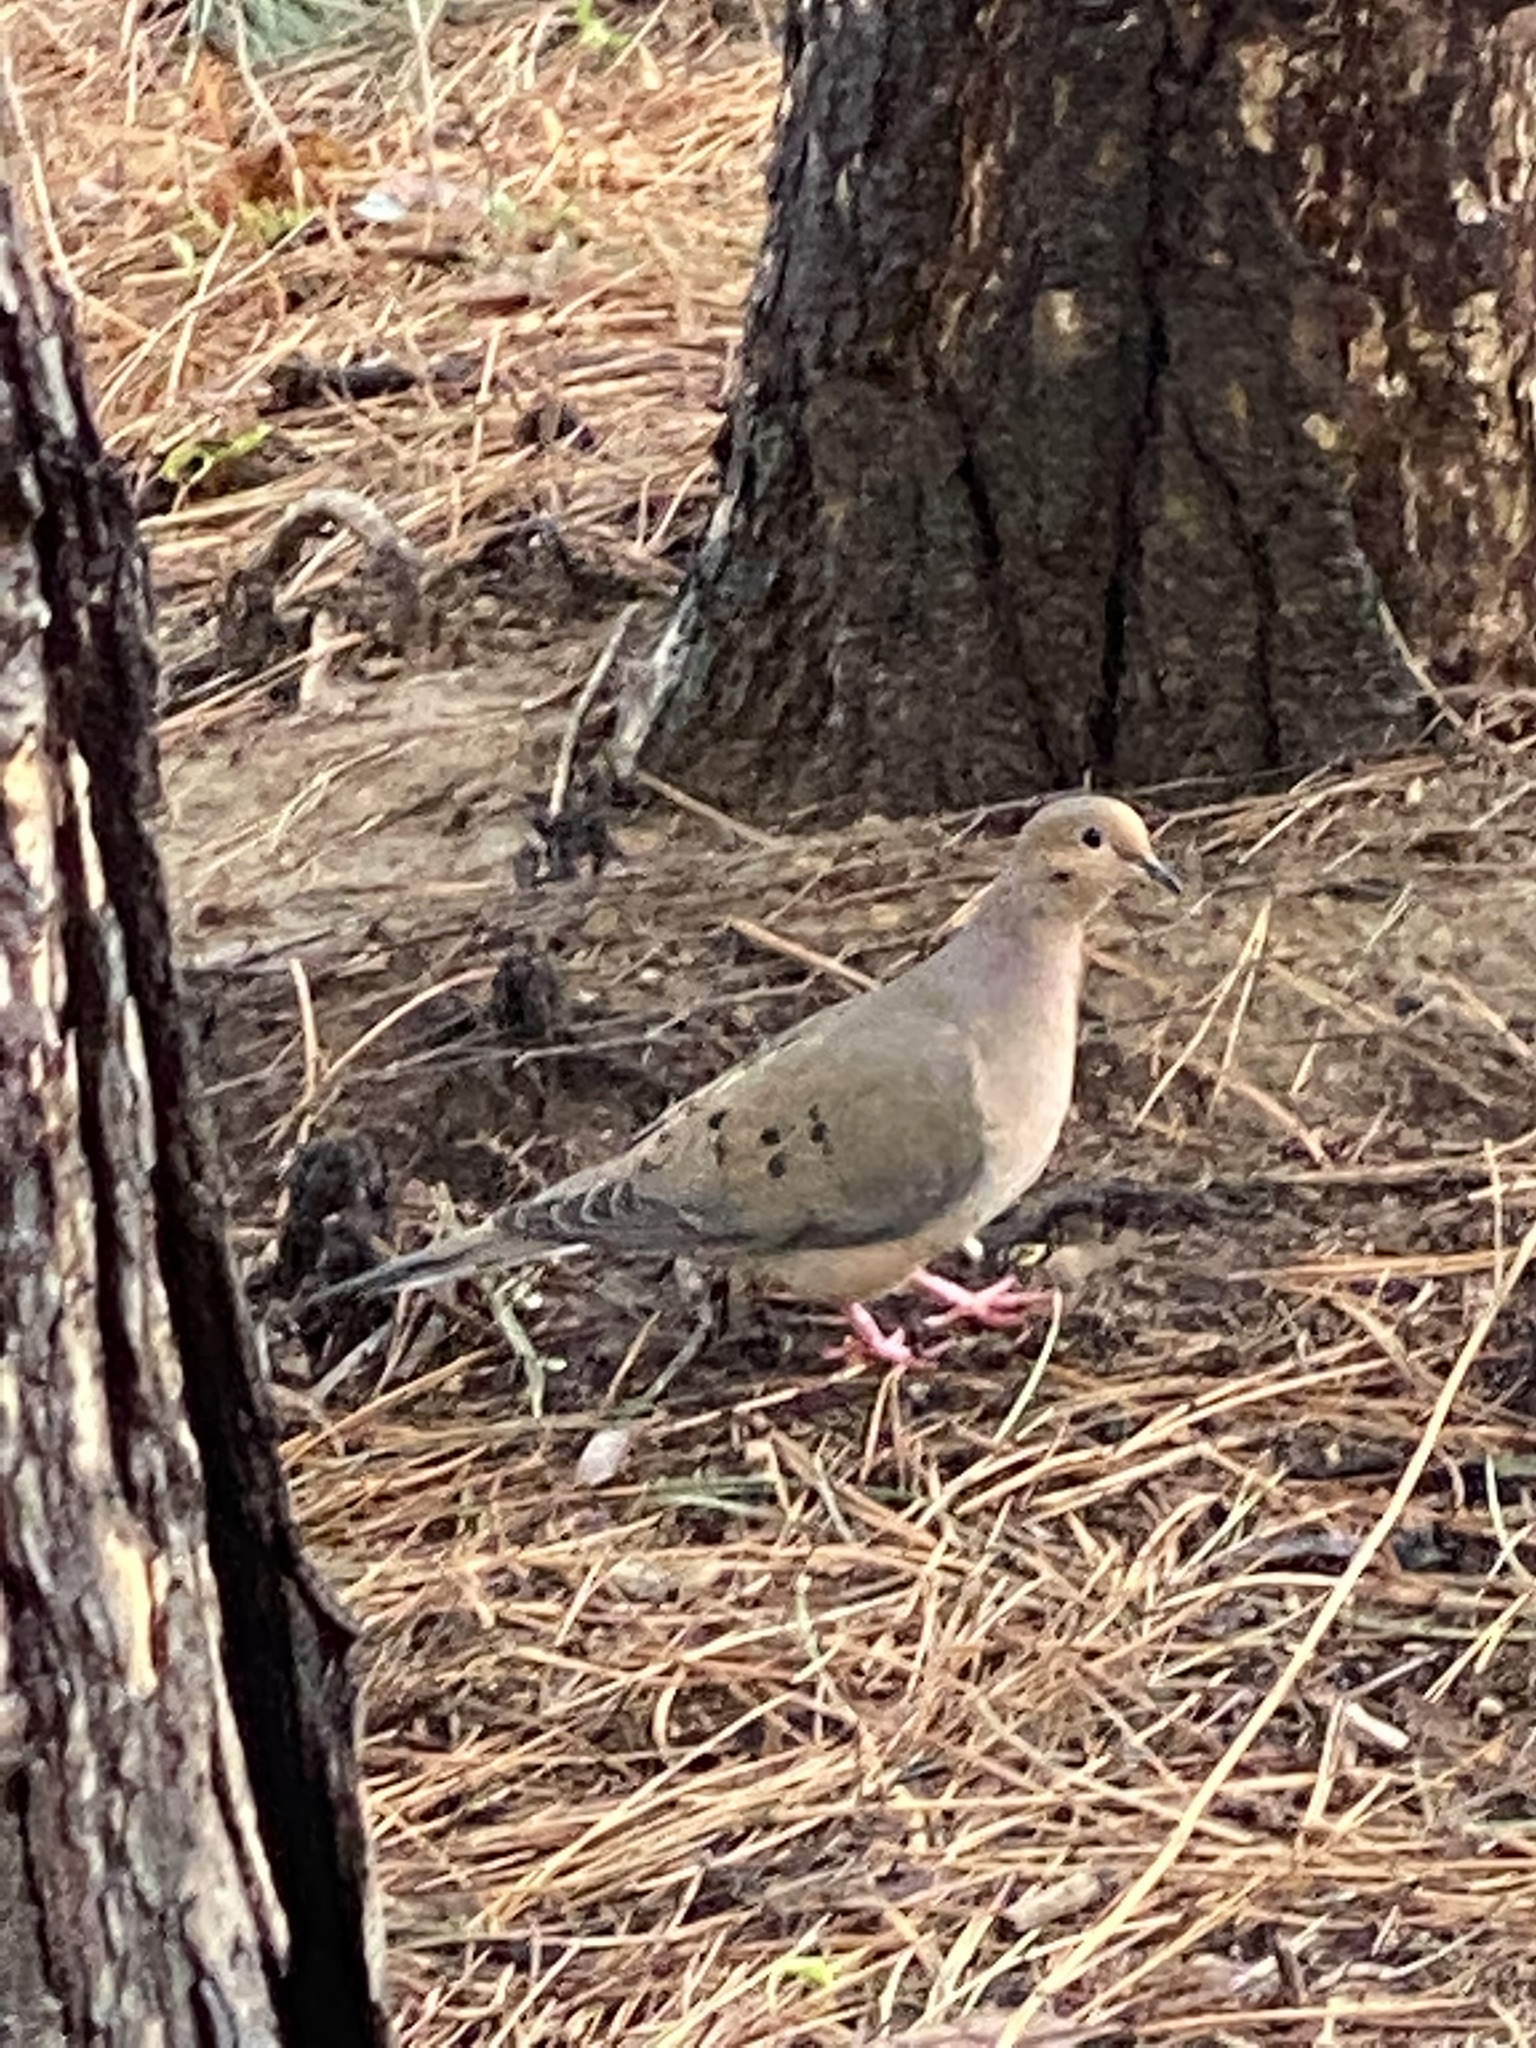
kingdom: Animalia
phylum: Chordata
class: Aves
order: Columbiformes
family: Columbidae
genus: Zenaida
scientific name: Zenaida macroura
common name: Mourning dove
